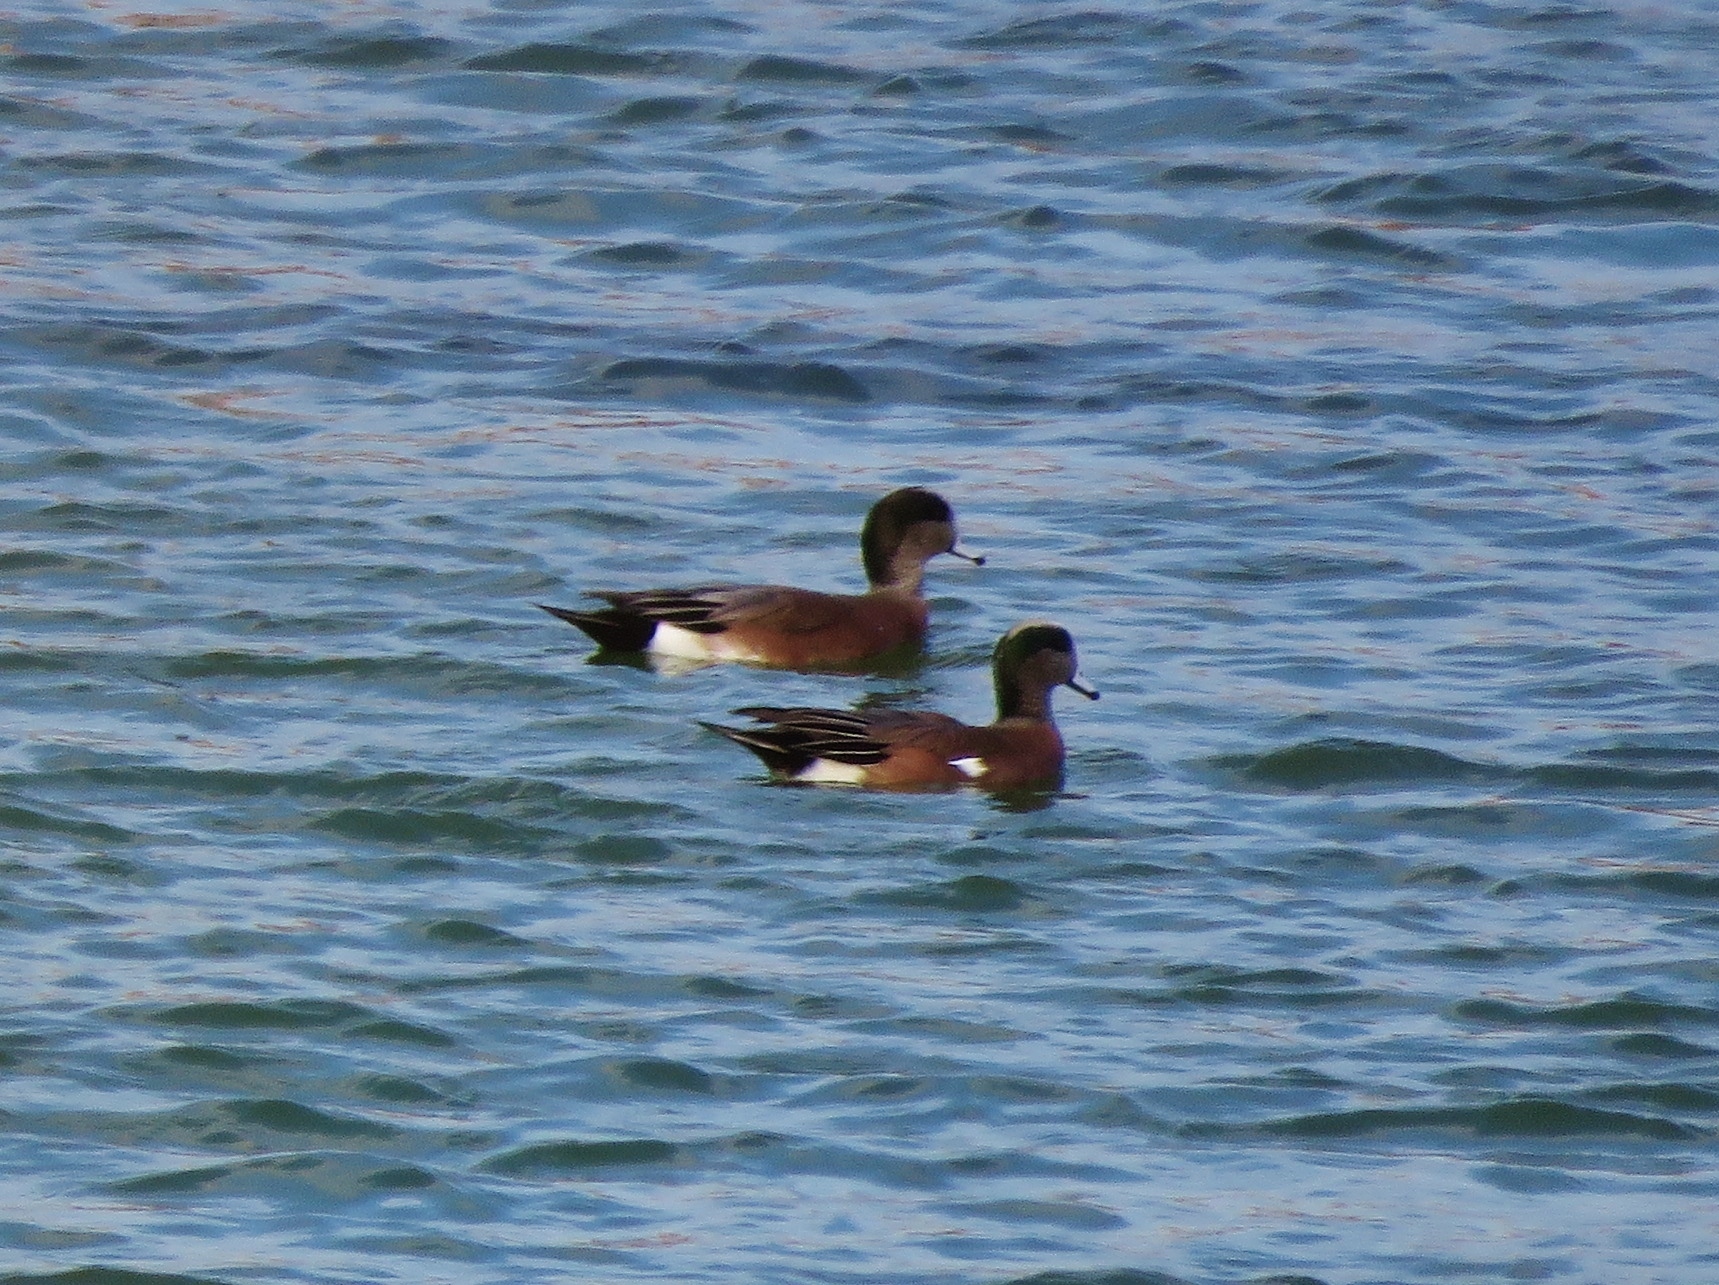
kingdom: Animalia
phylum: Chordata
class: Aves
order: Anseriformes
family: Anatidae
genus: Mareca
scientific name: Mareca americana
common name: American wigeon
